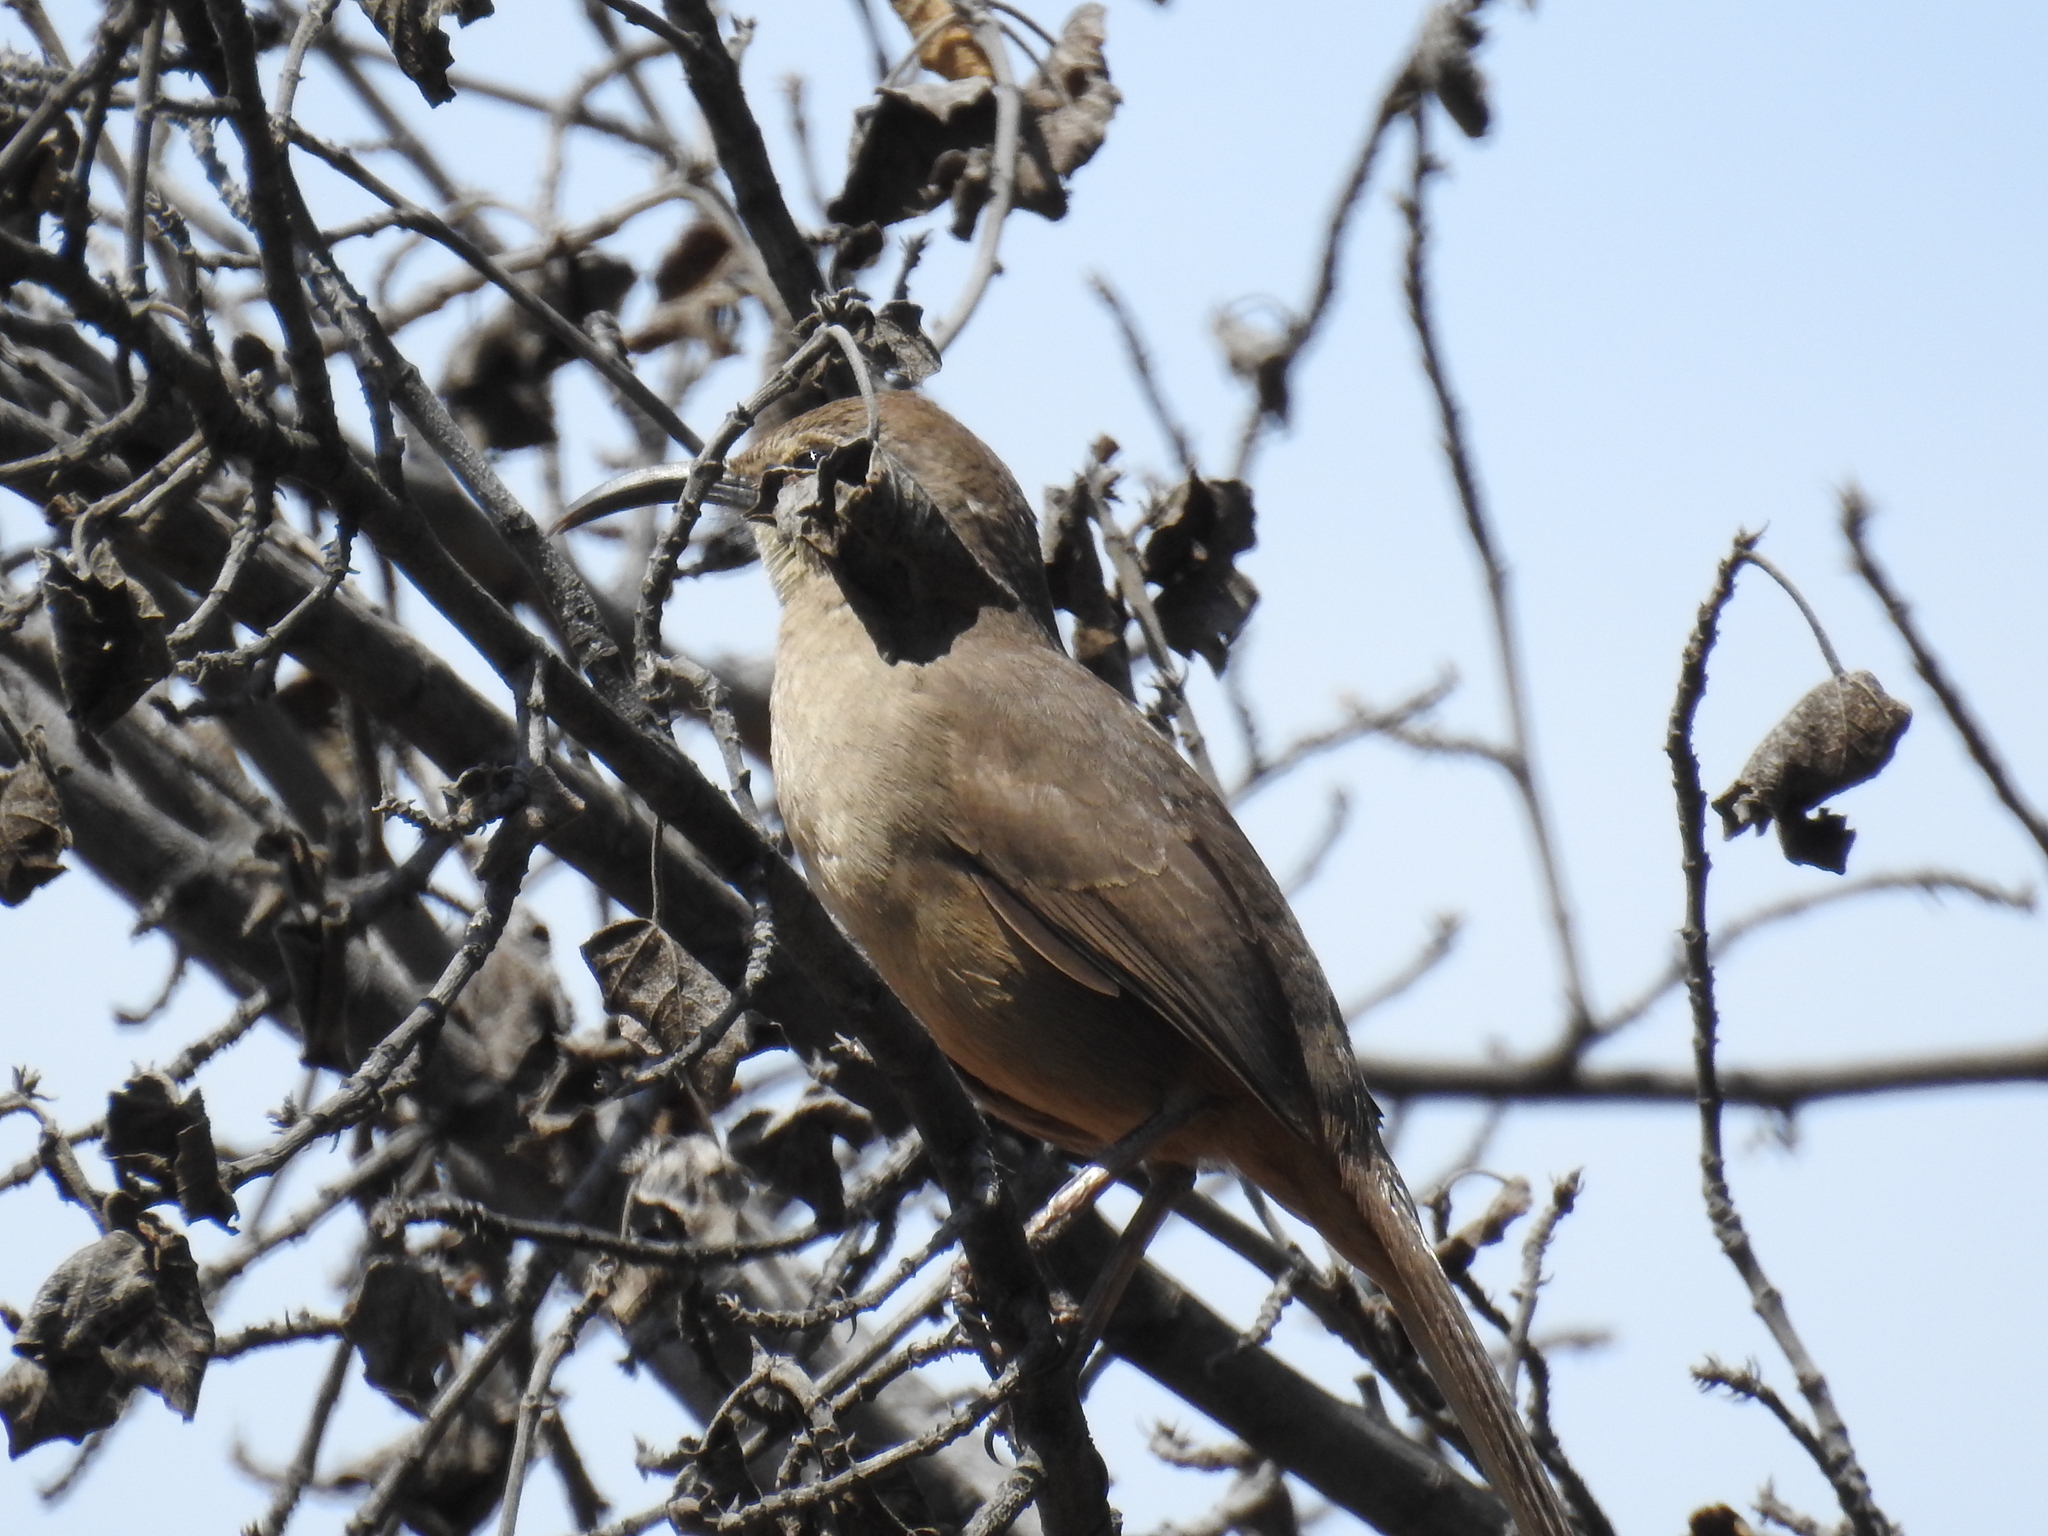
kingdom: Animalia
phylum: Chordata
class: Aves
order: Passeriformes
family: Mimidae
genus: Toxostoma
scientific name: Toxostoma redivivum
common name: California thrasher
